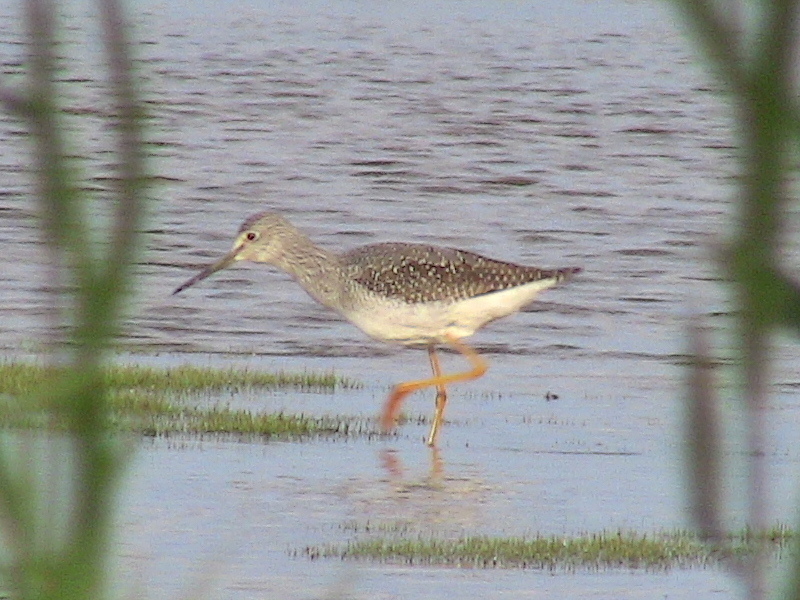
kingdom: Animalia
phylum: Chordata
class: Aves
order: Charadriiformes
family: Scolopacidae
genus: Tringa
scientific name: Tringa melanoleuca
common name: Greater yellowlegs
